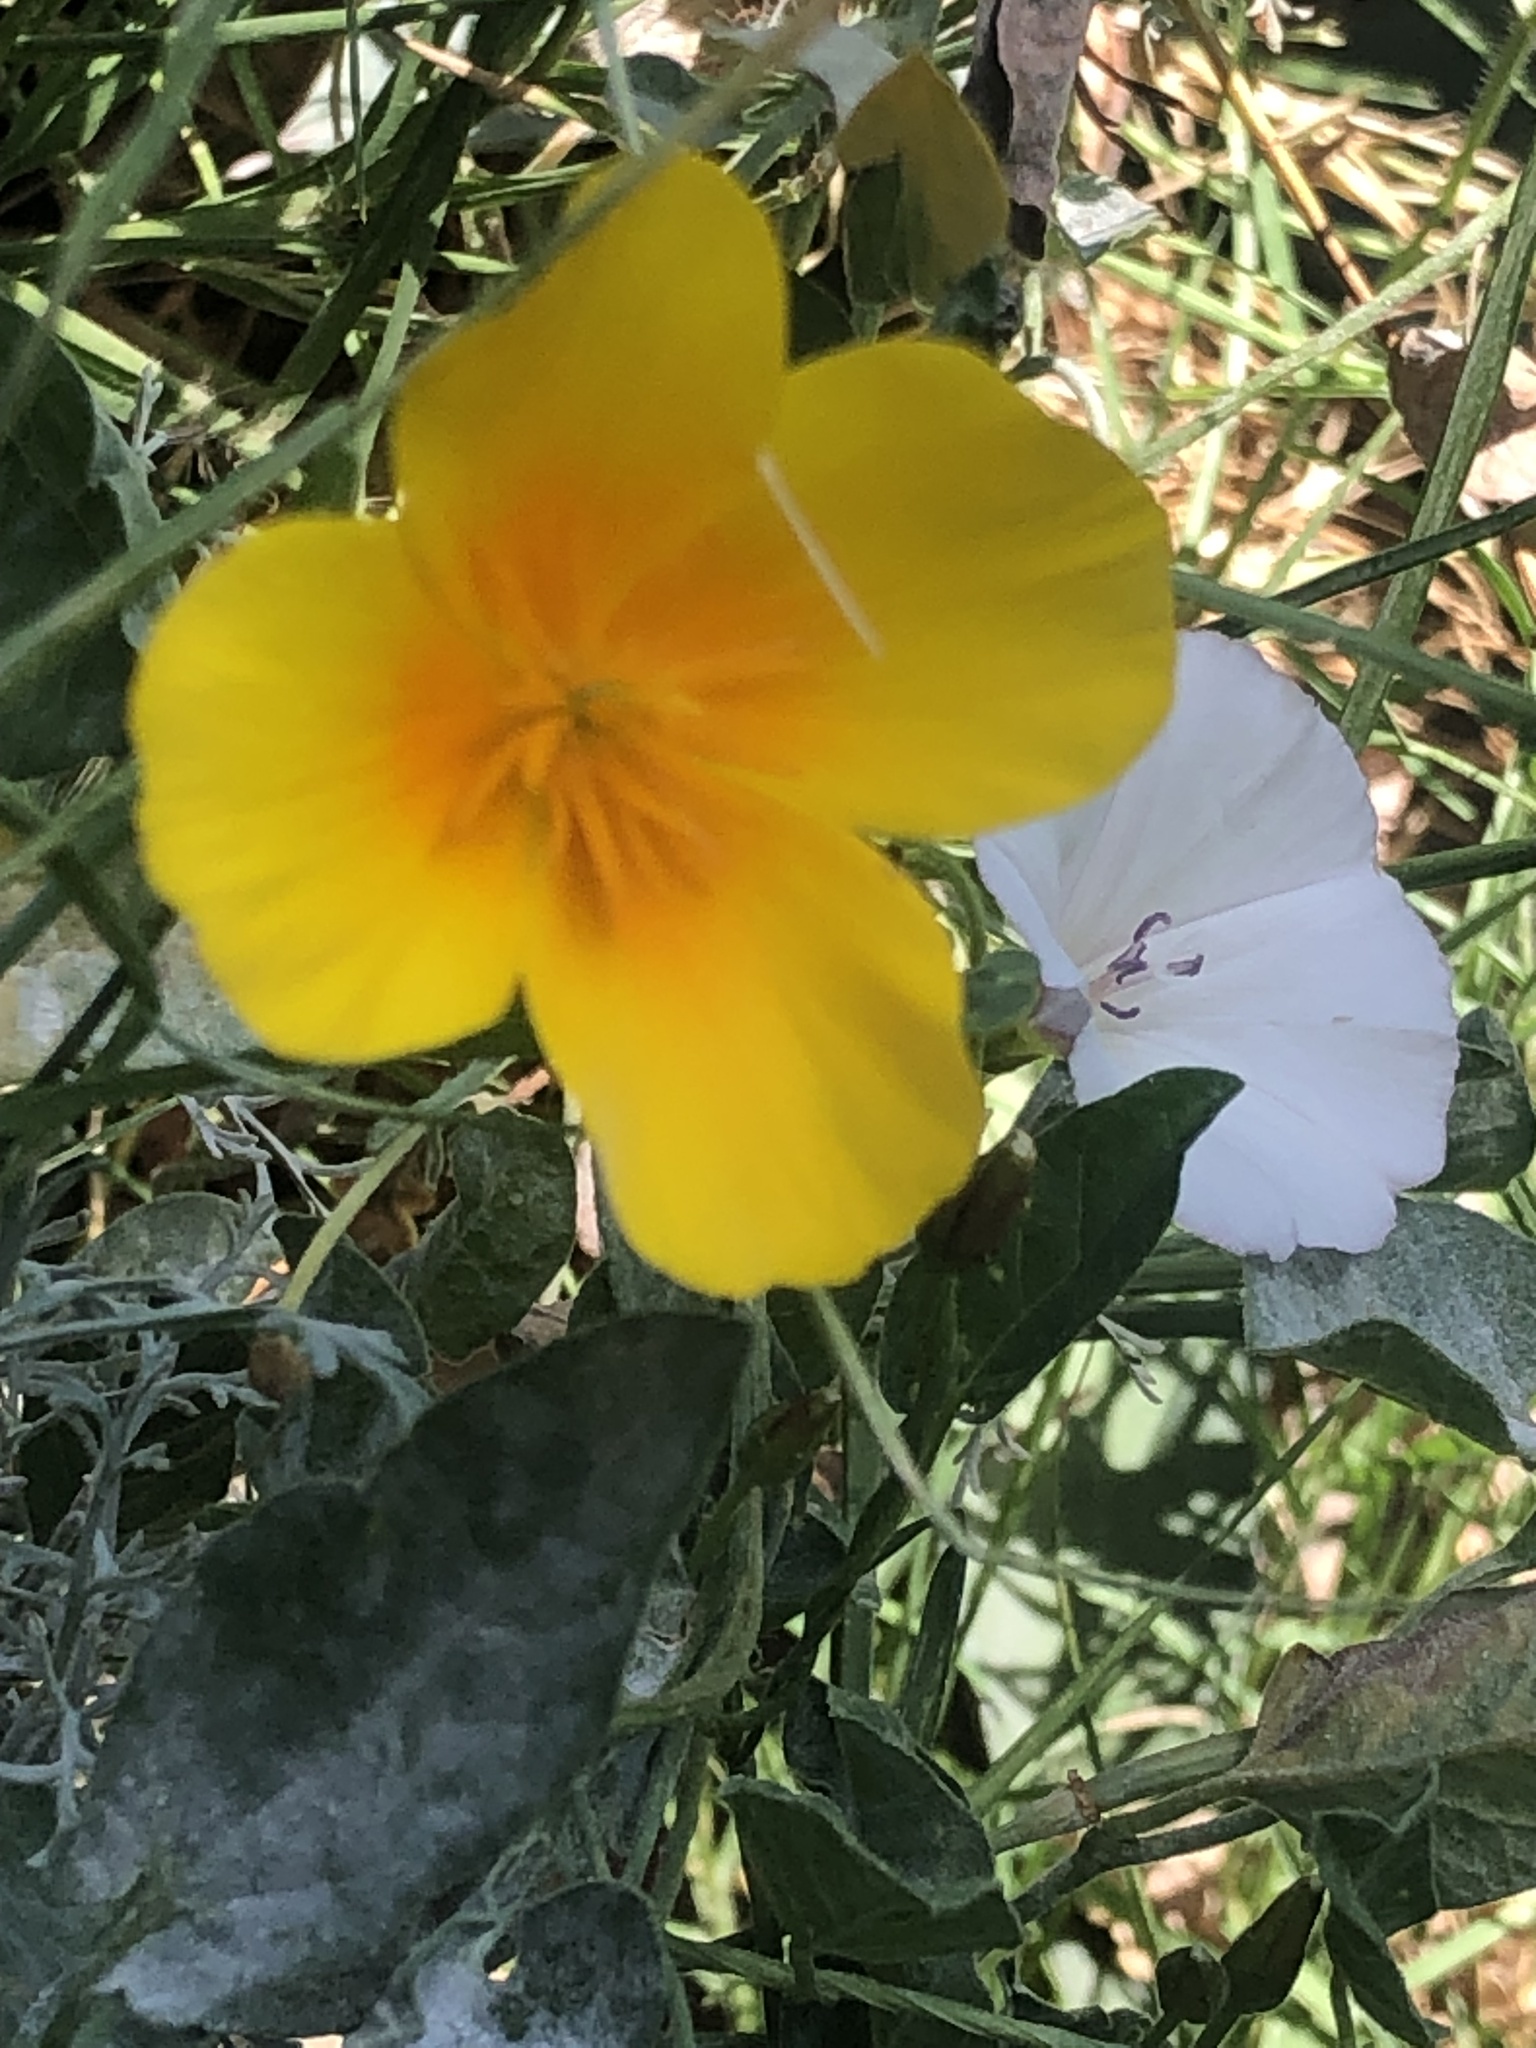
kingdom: Plantae
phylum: Tracheophyta
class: Magnoliopsida
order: Ranunculales
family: Papaveraceae
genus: Eschscholzia
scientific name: Eschscholzia californica
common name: California poppy
